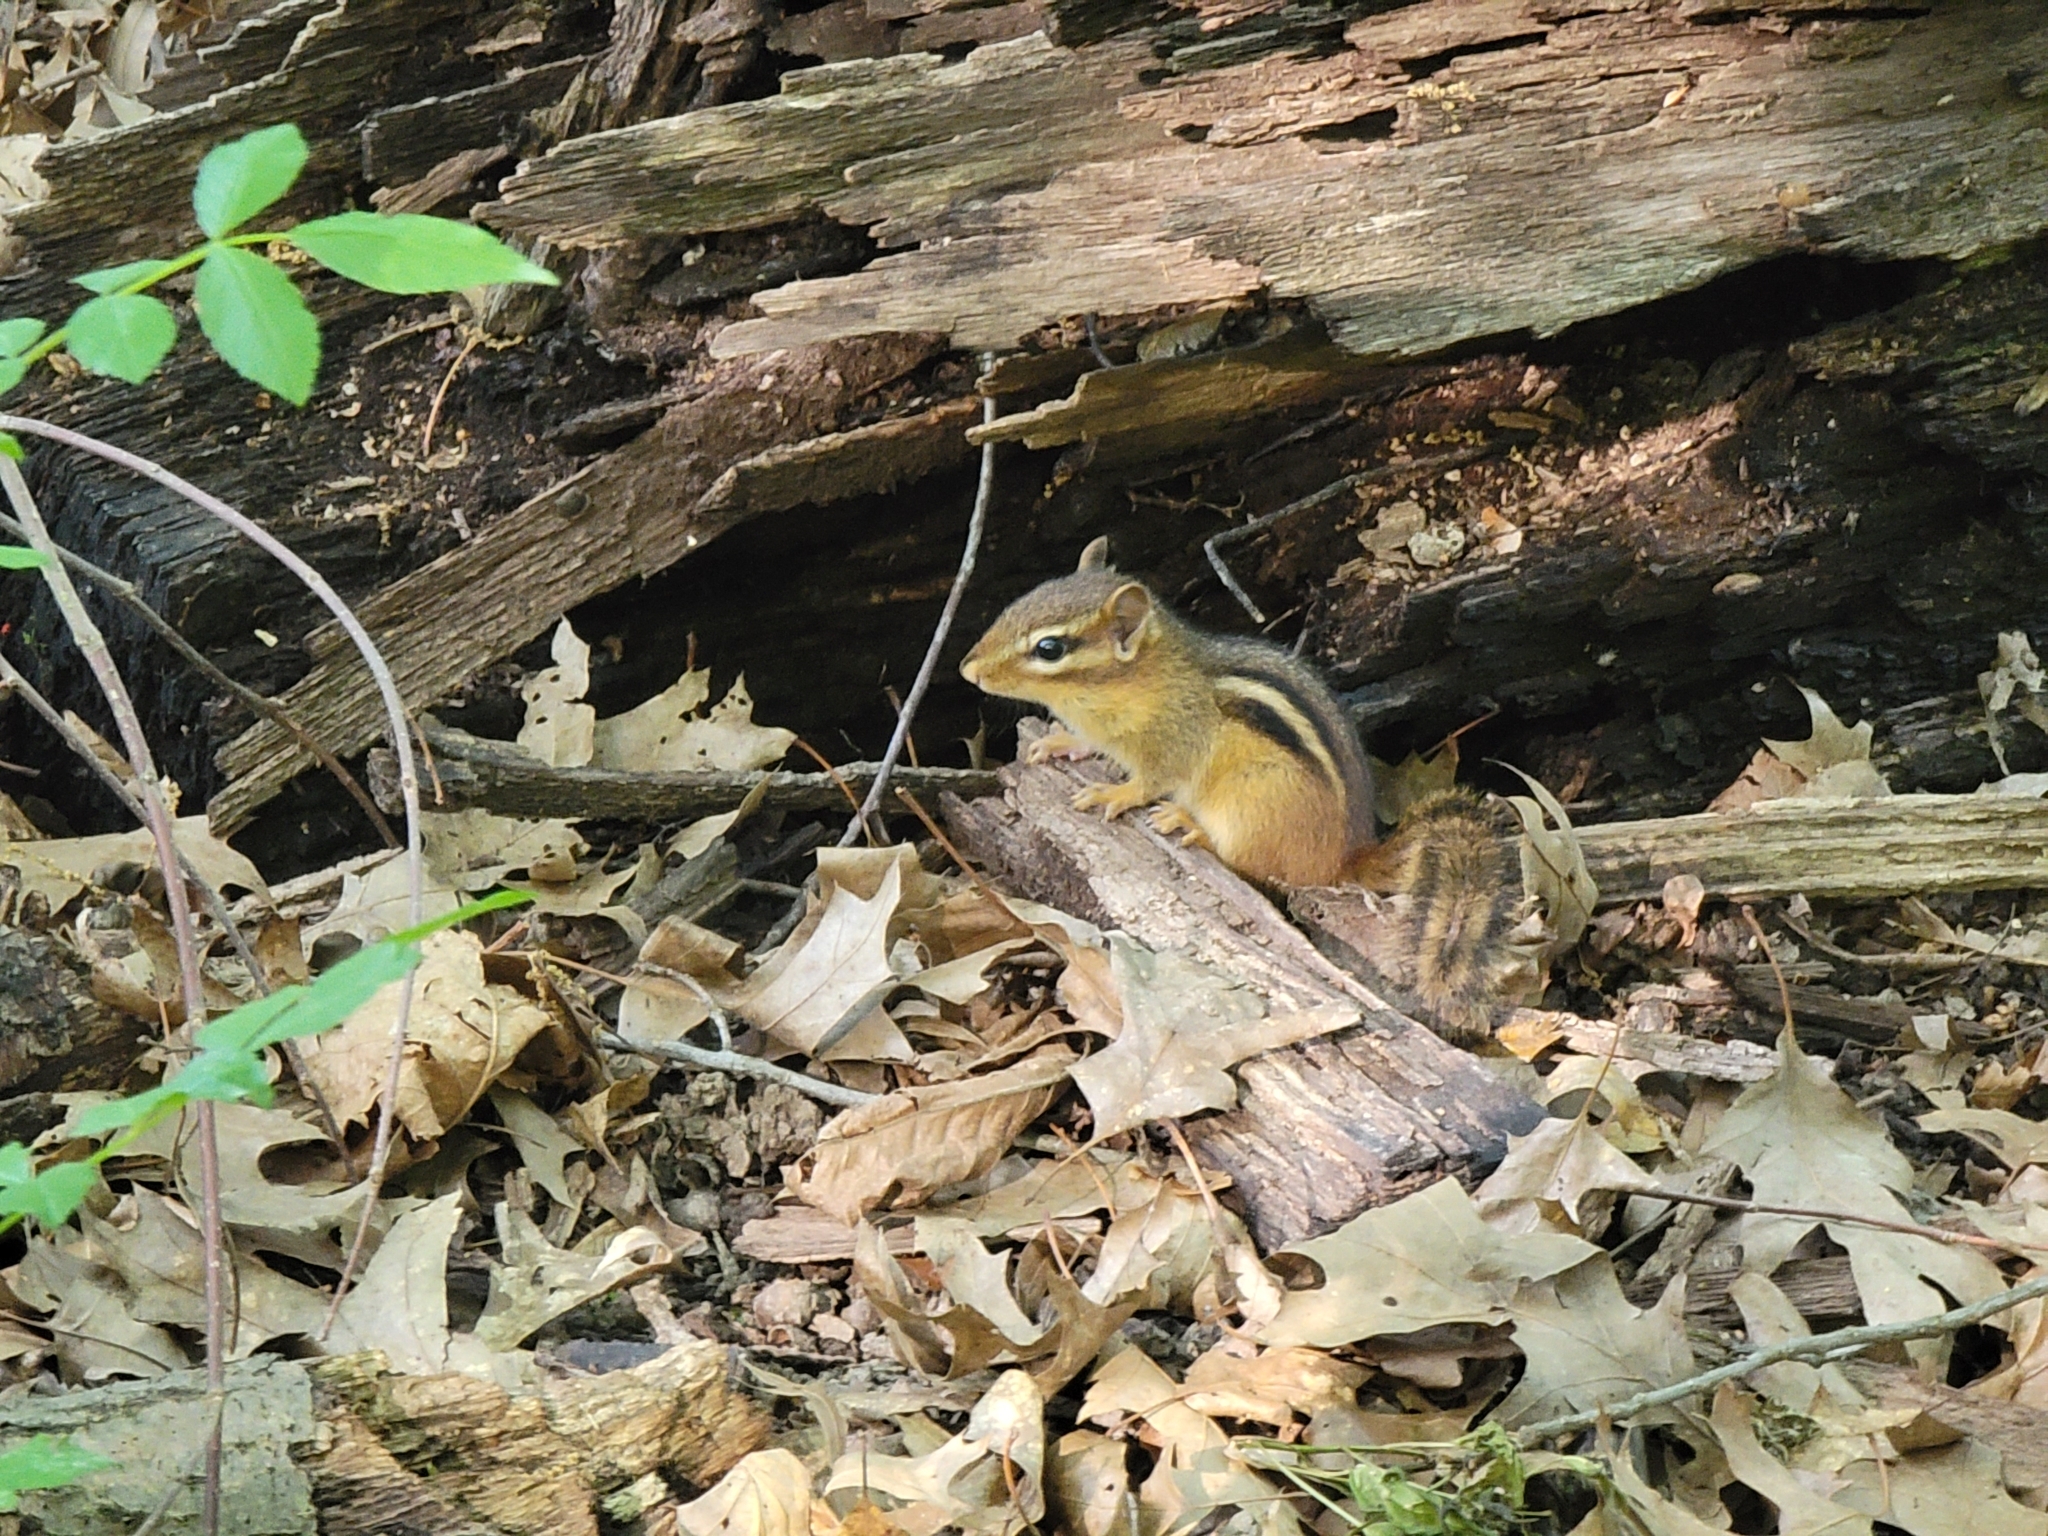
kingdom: Animalia
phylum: Chordata
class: Mammalia
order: Rodentia
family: Sciuridae
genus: Tamias
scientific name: Tamias striatus
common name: Eastern chipmunk
